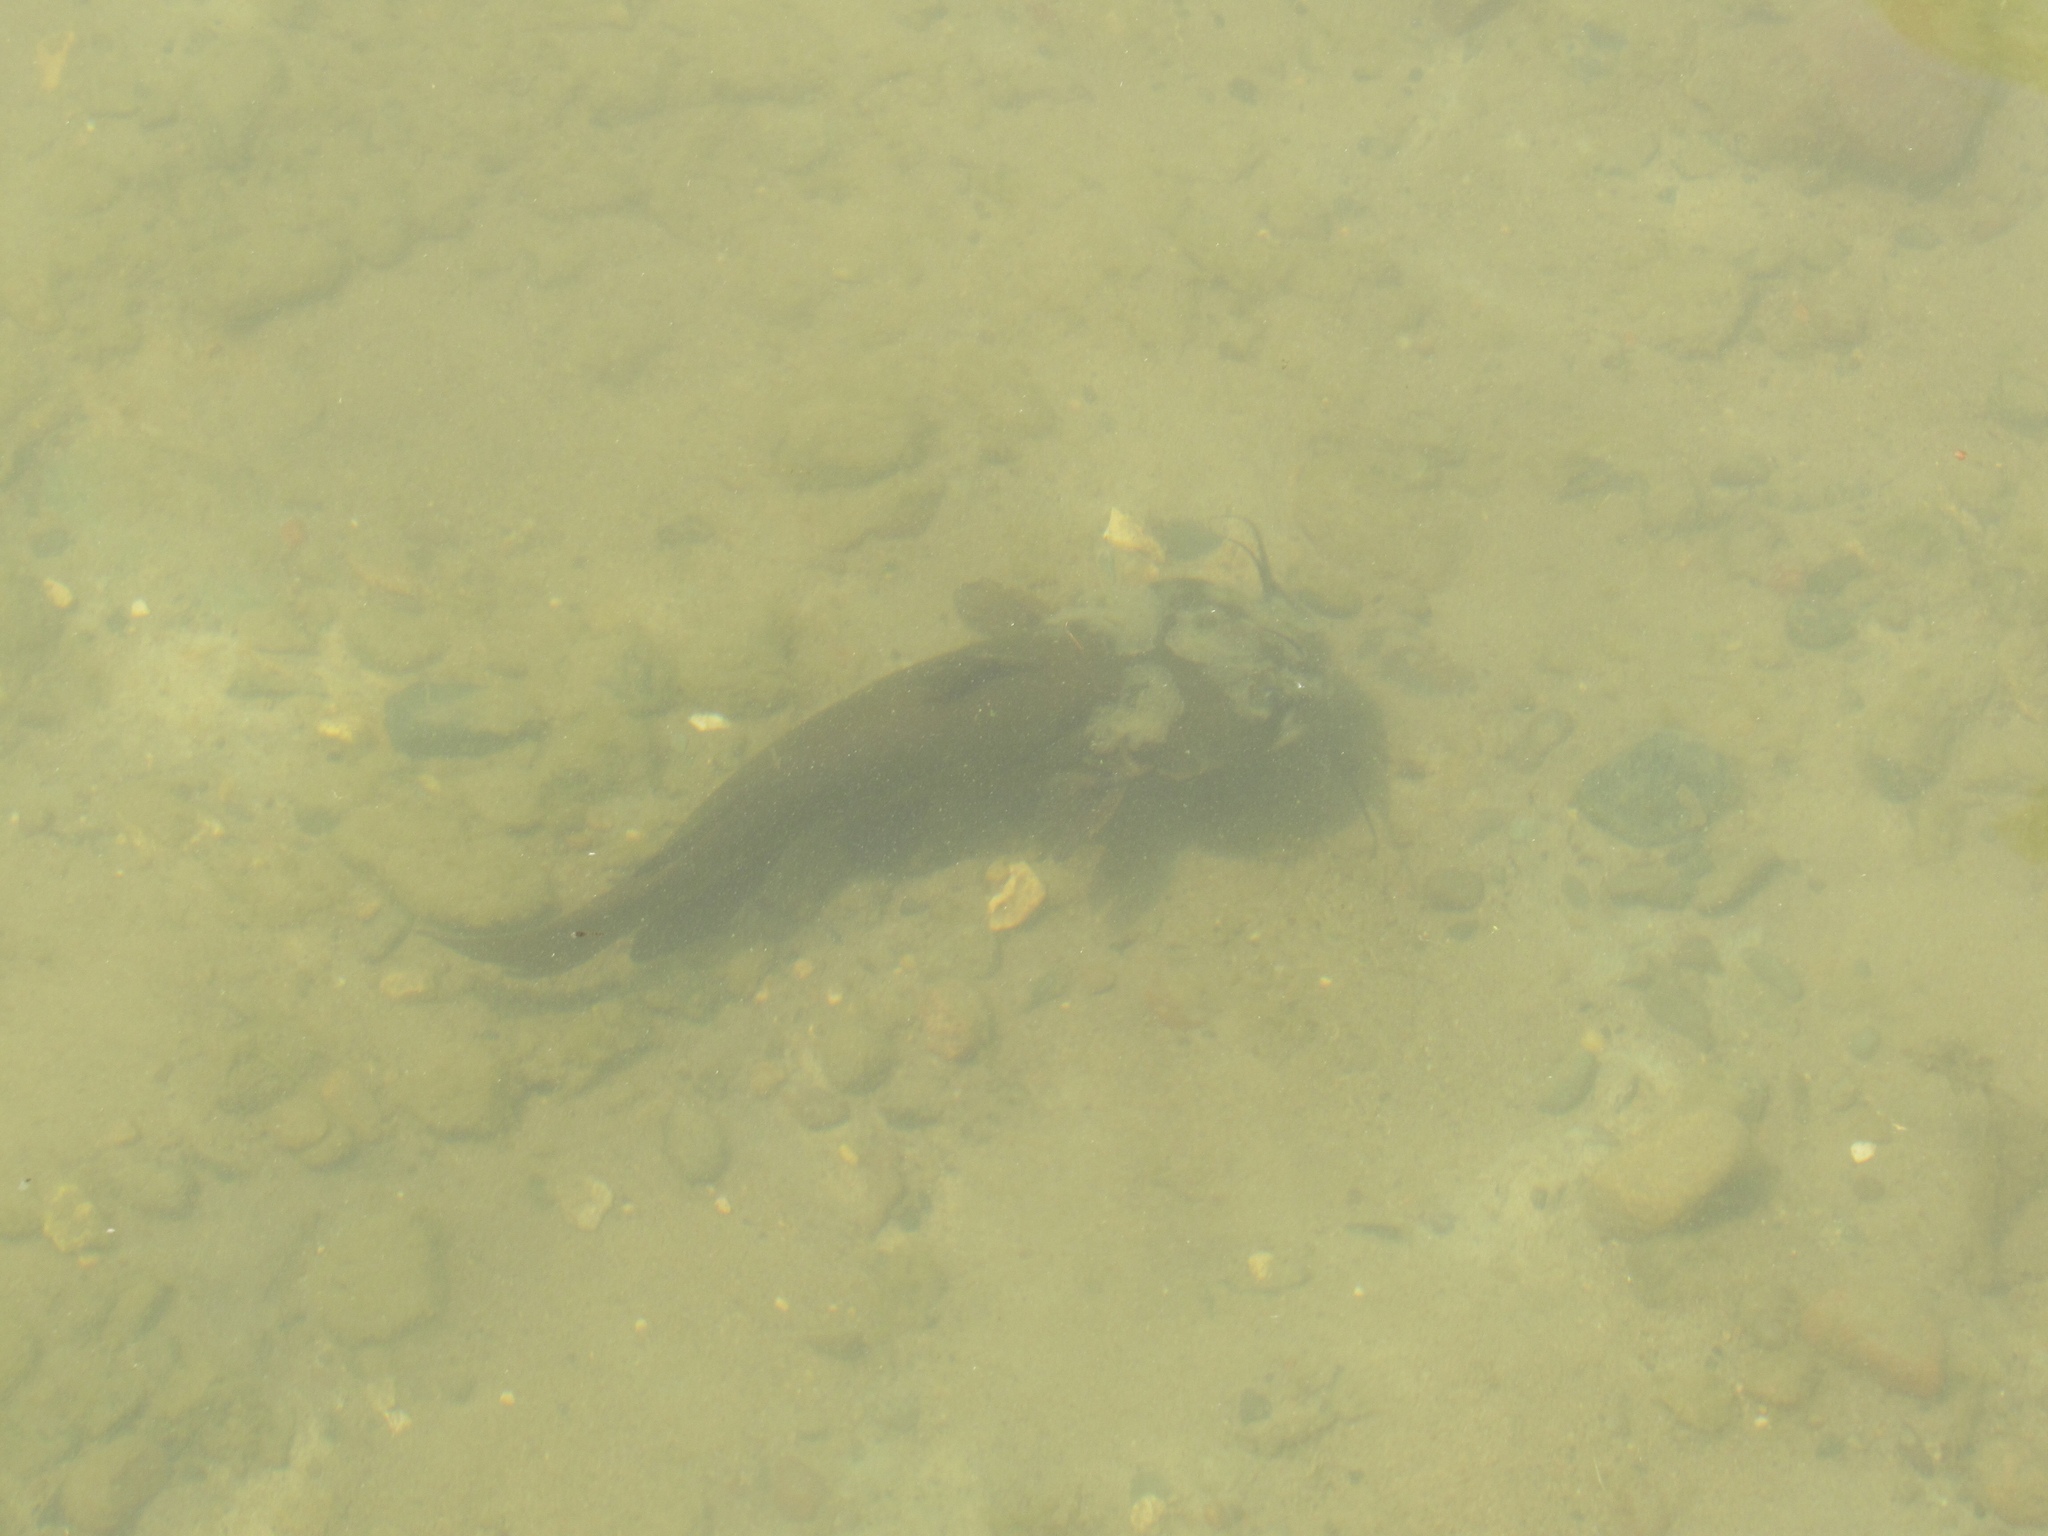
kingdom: Animalia
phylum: Chordata
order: Siluriformes
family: Ictaluridae
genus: Ameiurus
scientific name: Ameiurus natalis
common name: Yellow bullhead
